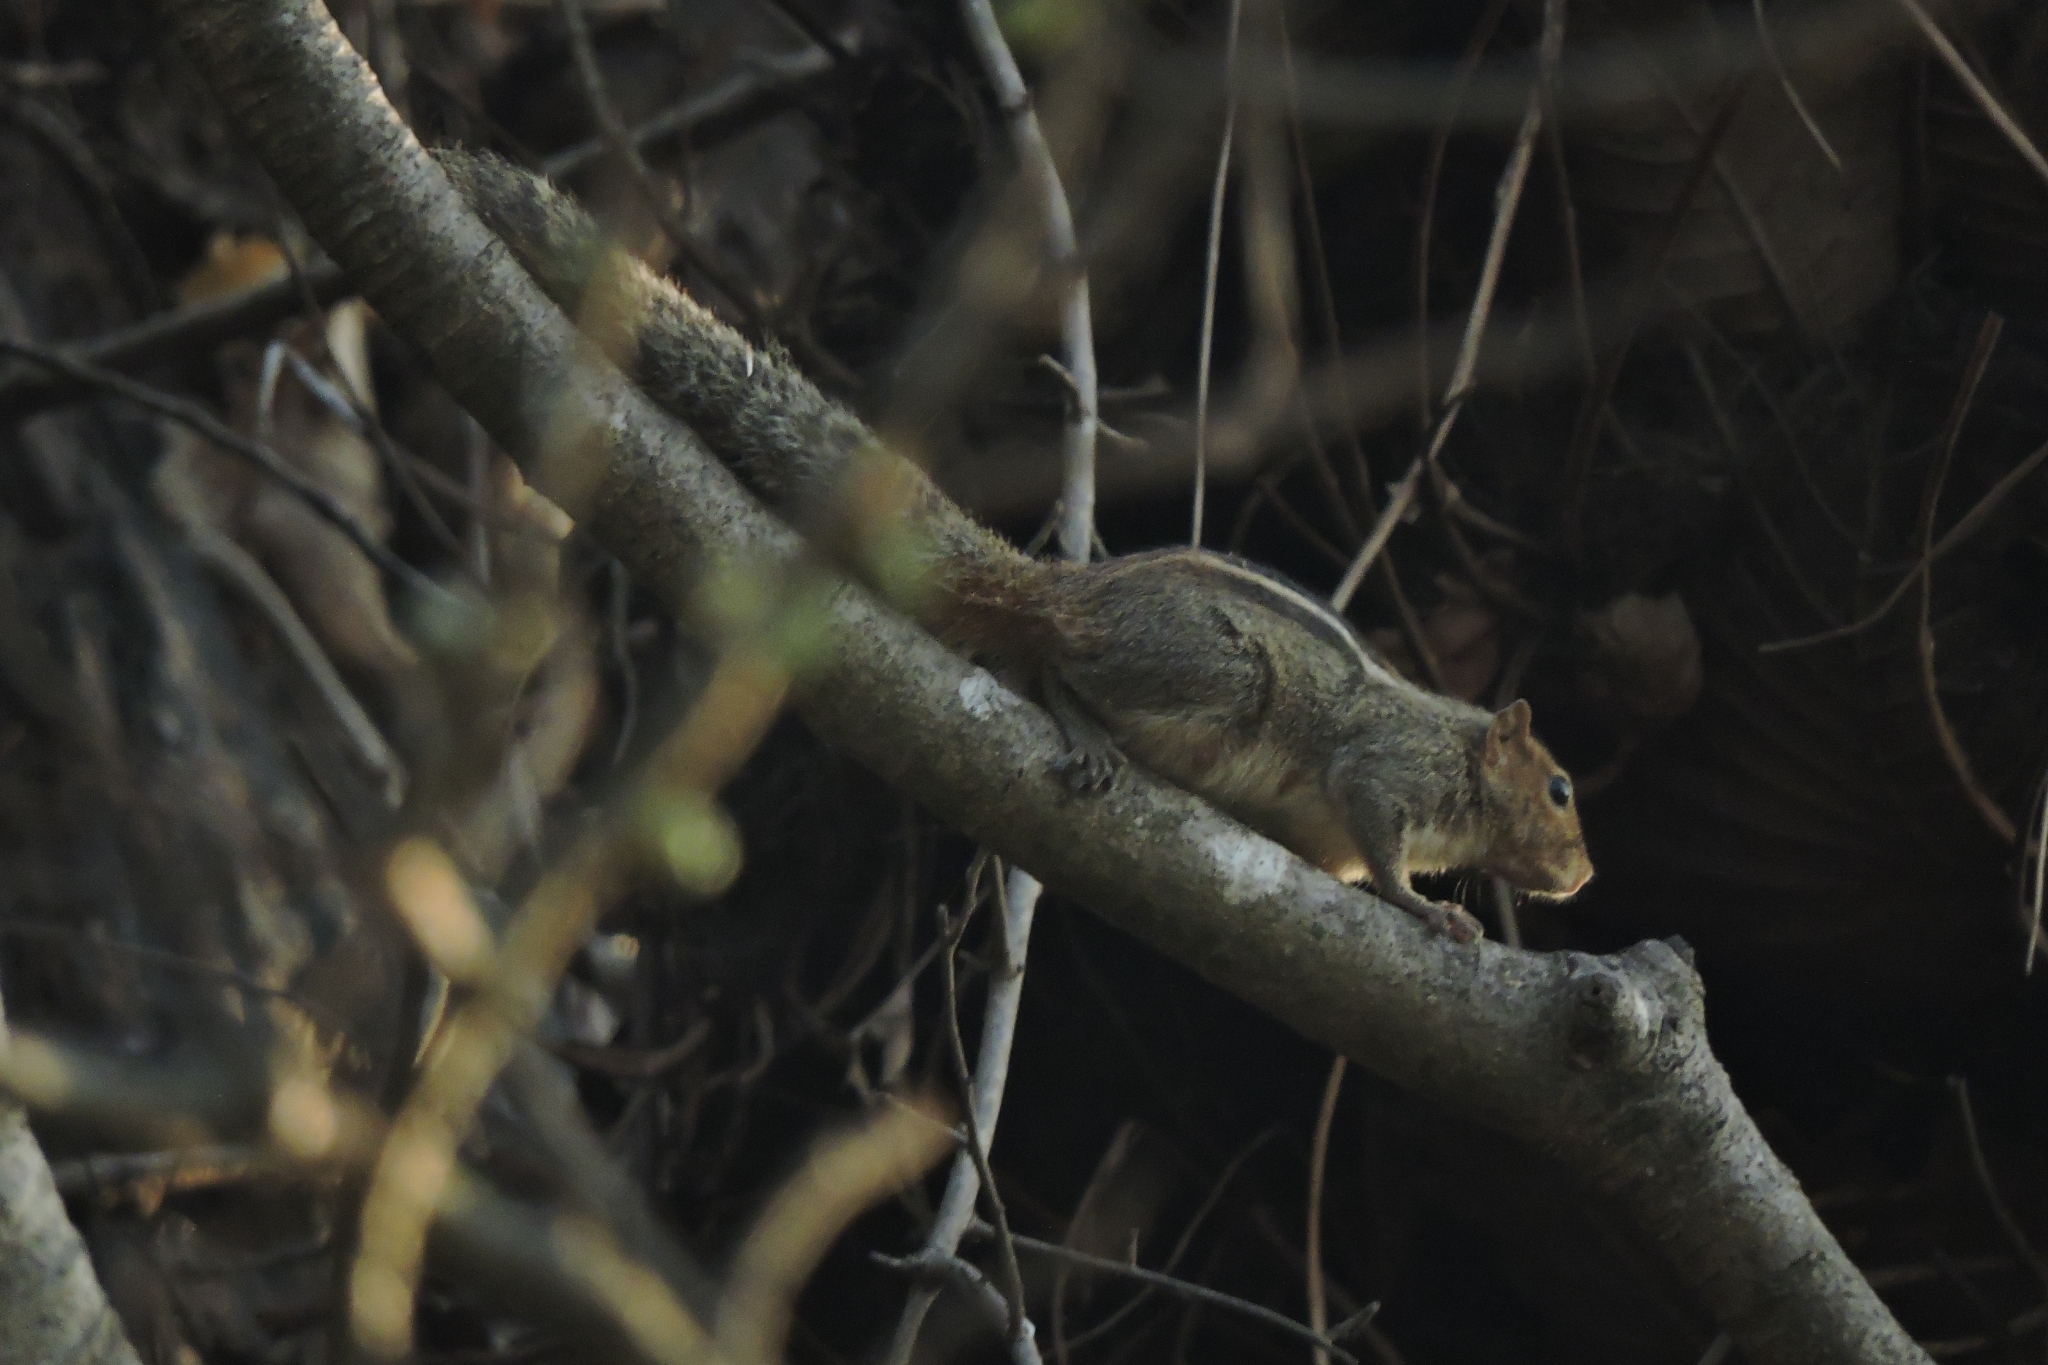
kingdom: Animalia
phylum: Chordata
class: Mammalia
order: Rodentia
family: Sciuridae
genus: Funambulus
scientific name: Funambulus tristriatus
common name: Jungle palm squirrel
